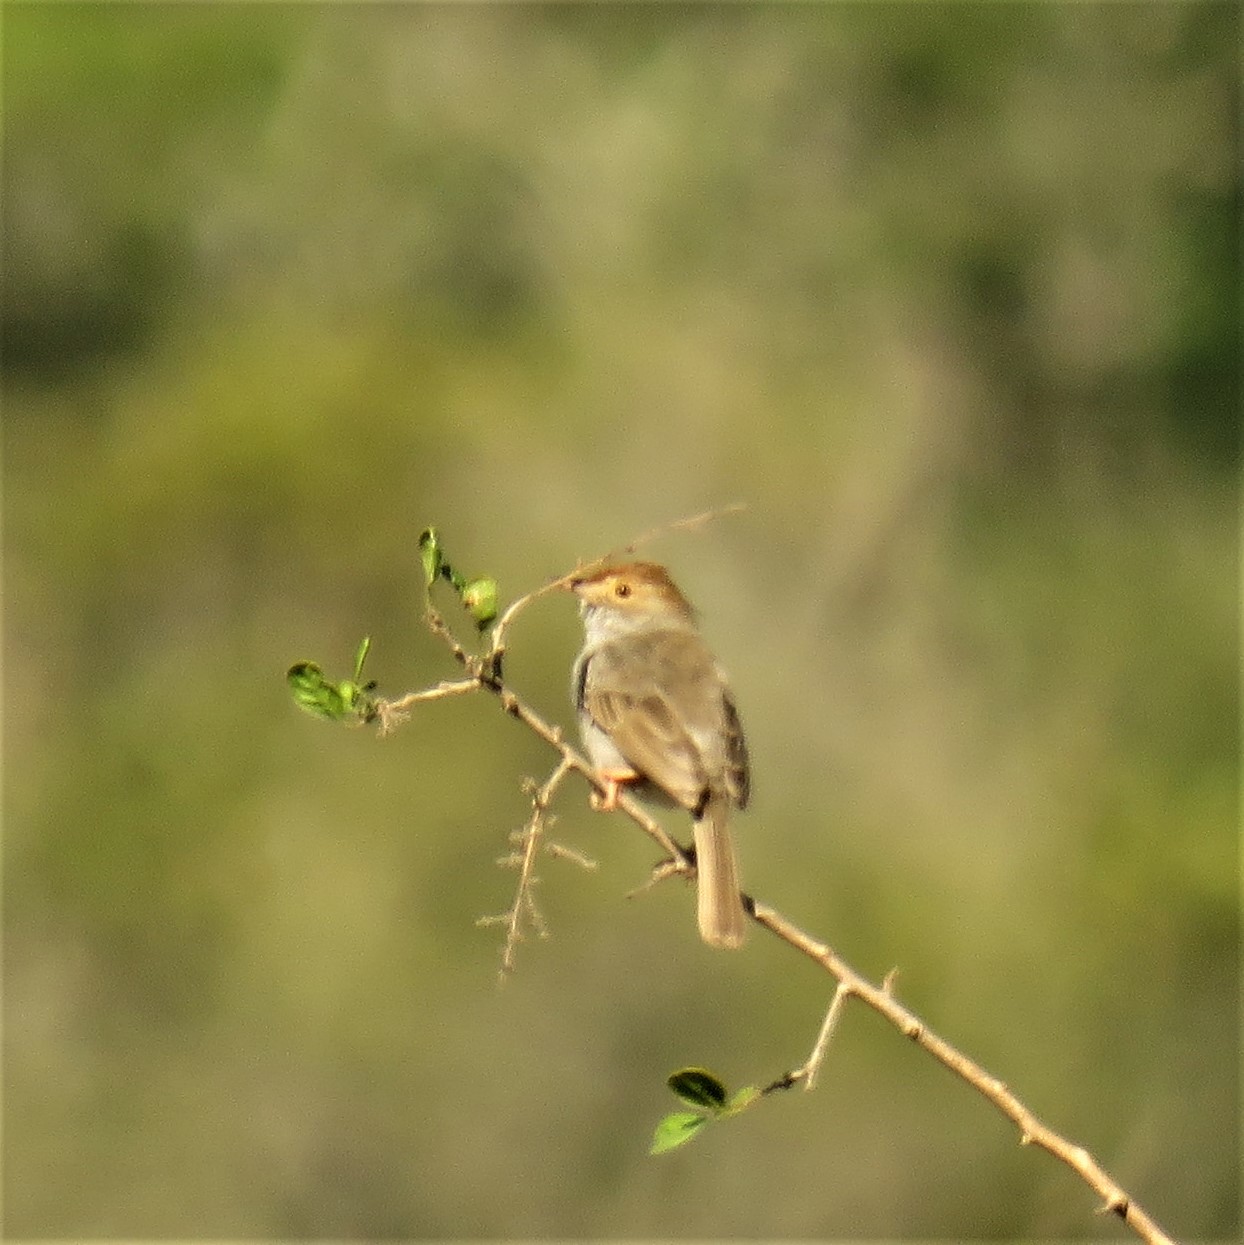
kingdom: Animalia
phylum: Chordata
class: Aves
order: Passeriformes
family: Cisticolidae
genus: Cisticola
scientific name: Cisticola fulvicapilla
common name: Neddicky
